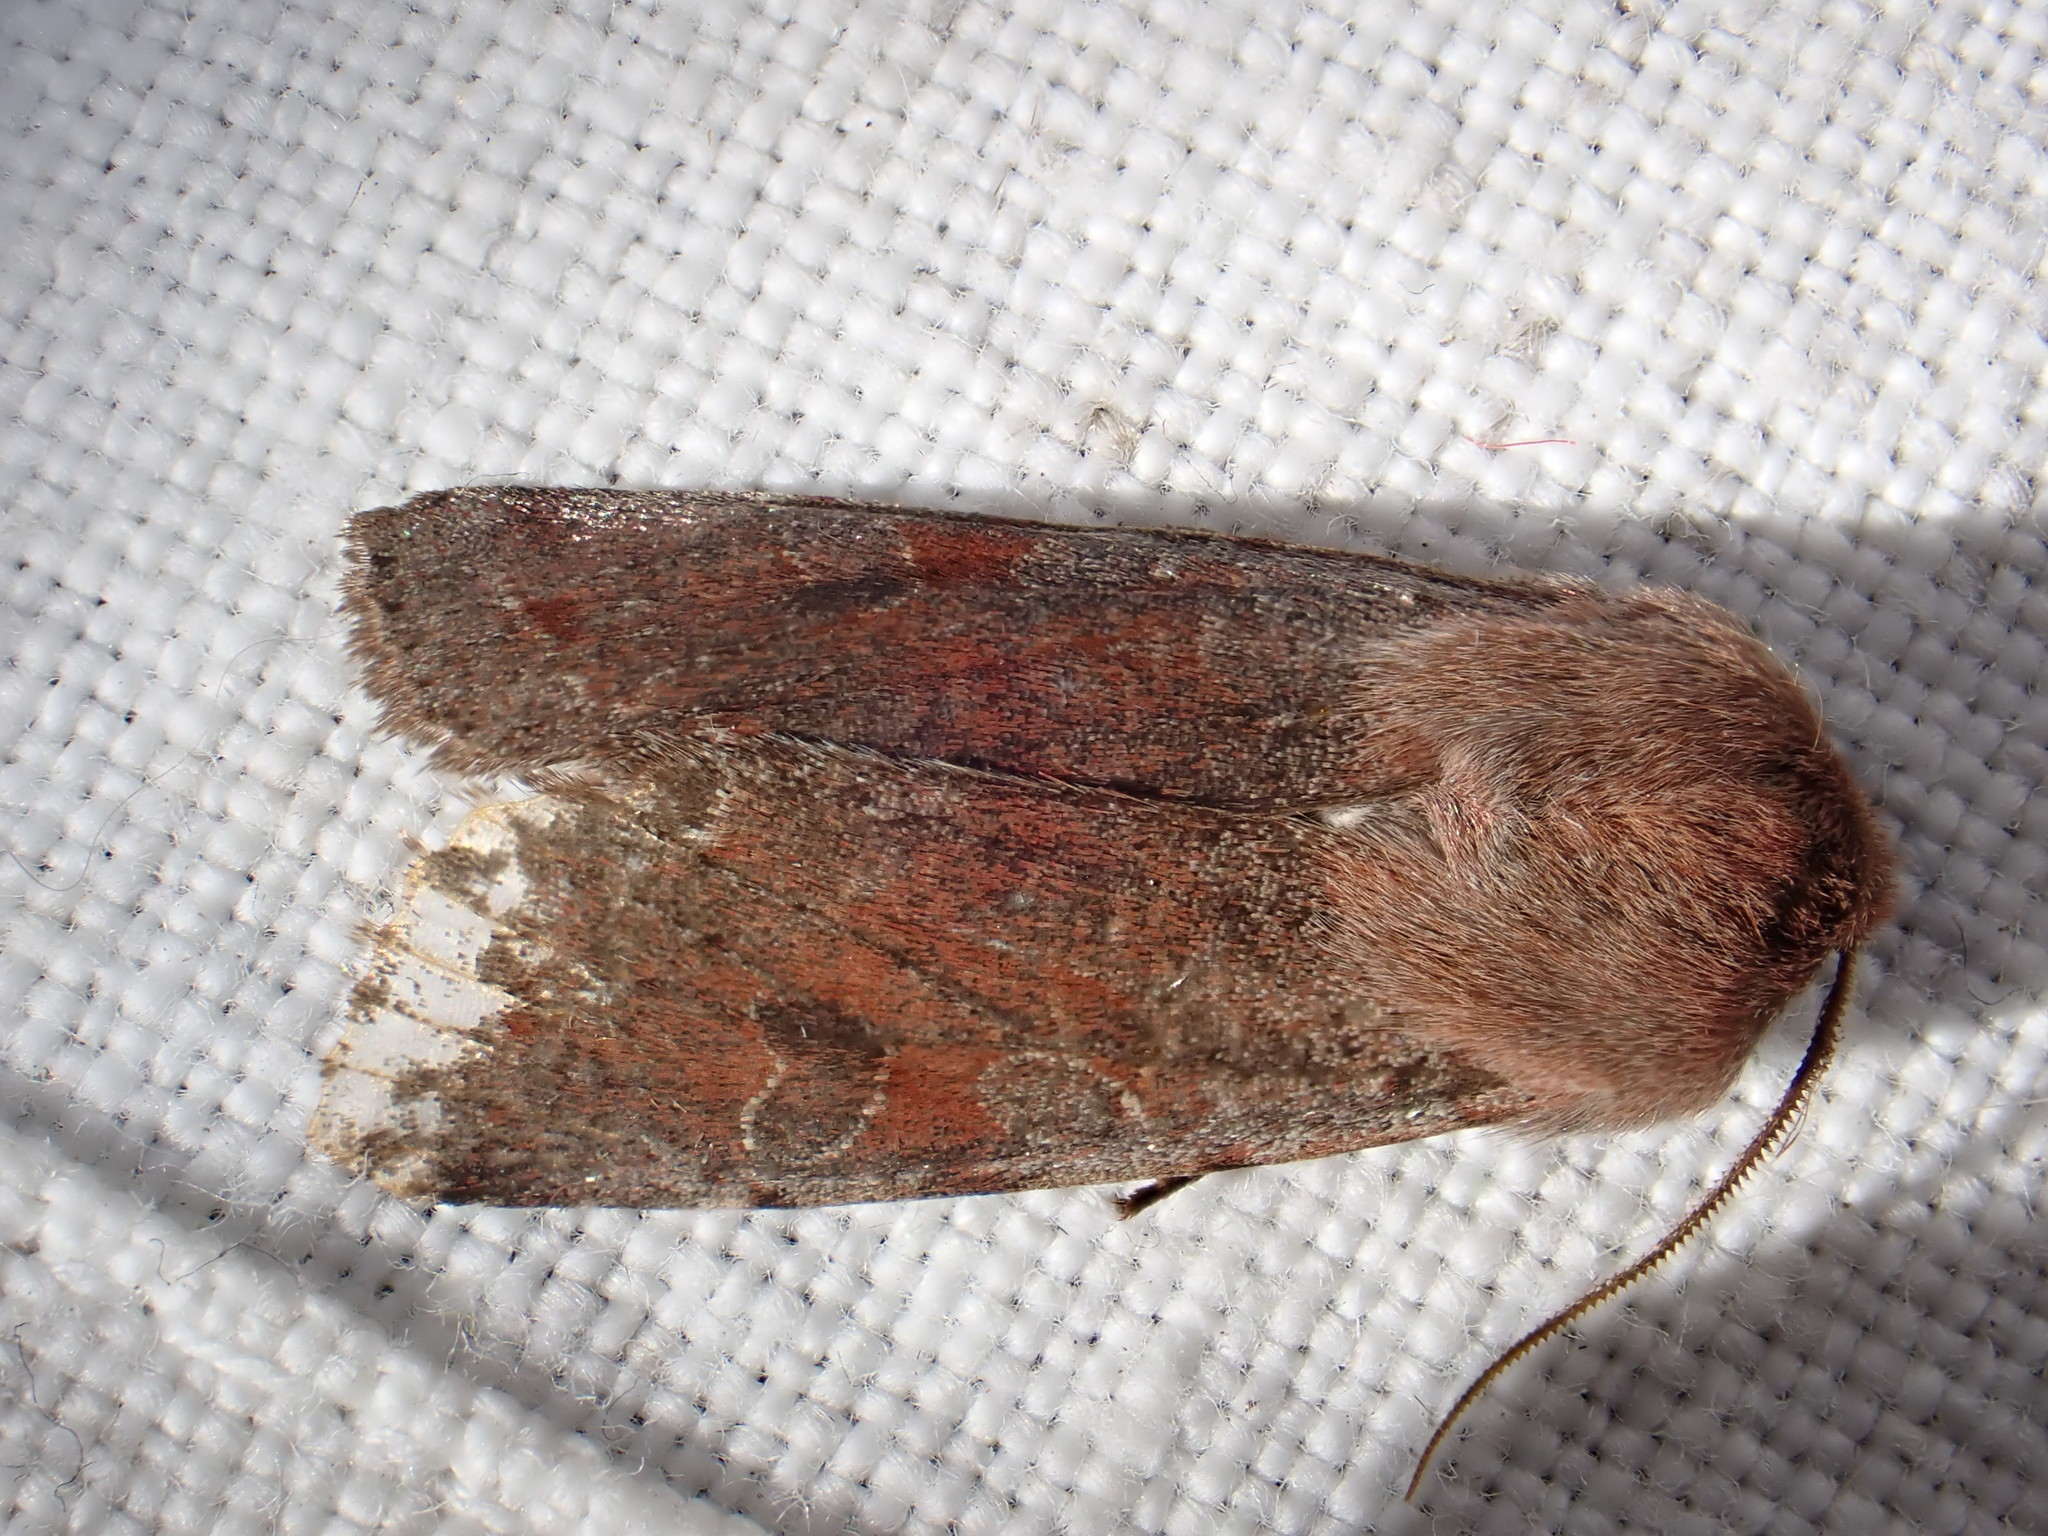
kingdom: Animalia
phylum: Arthropoda
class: Insecta
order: Lepidoptera
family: Noctuidae
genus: Orthosia
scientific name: Orthosia incerta
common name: Clouded drab
